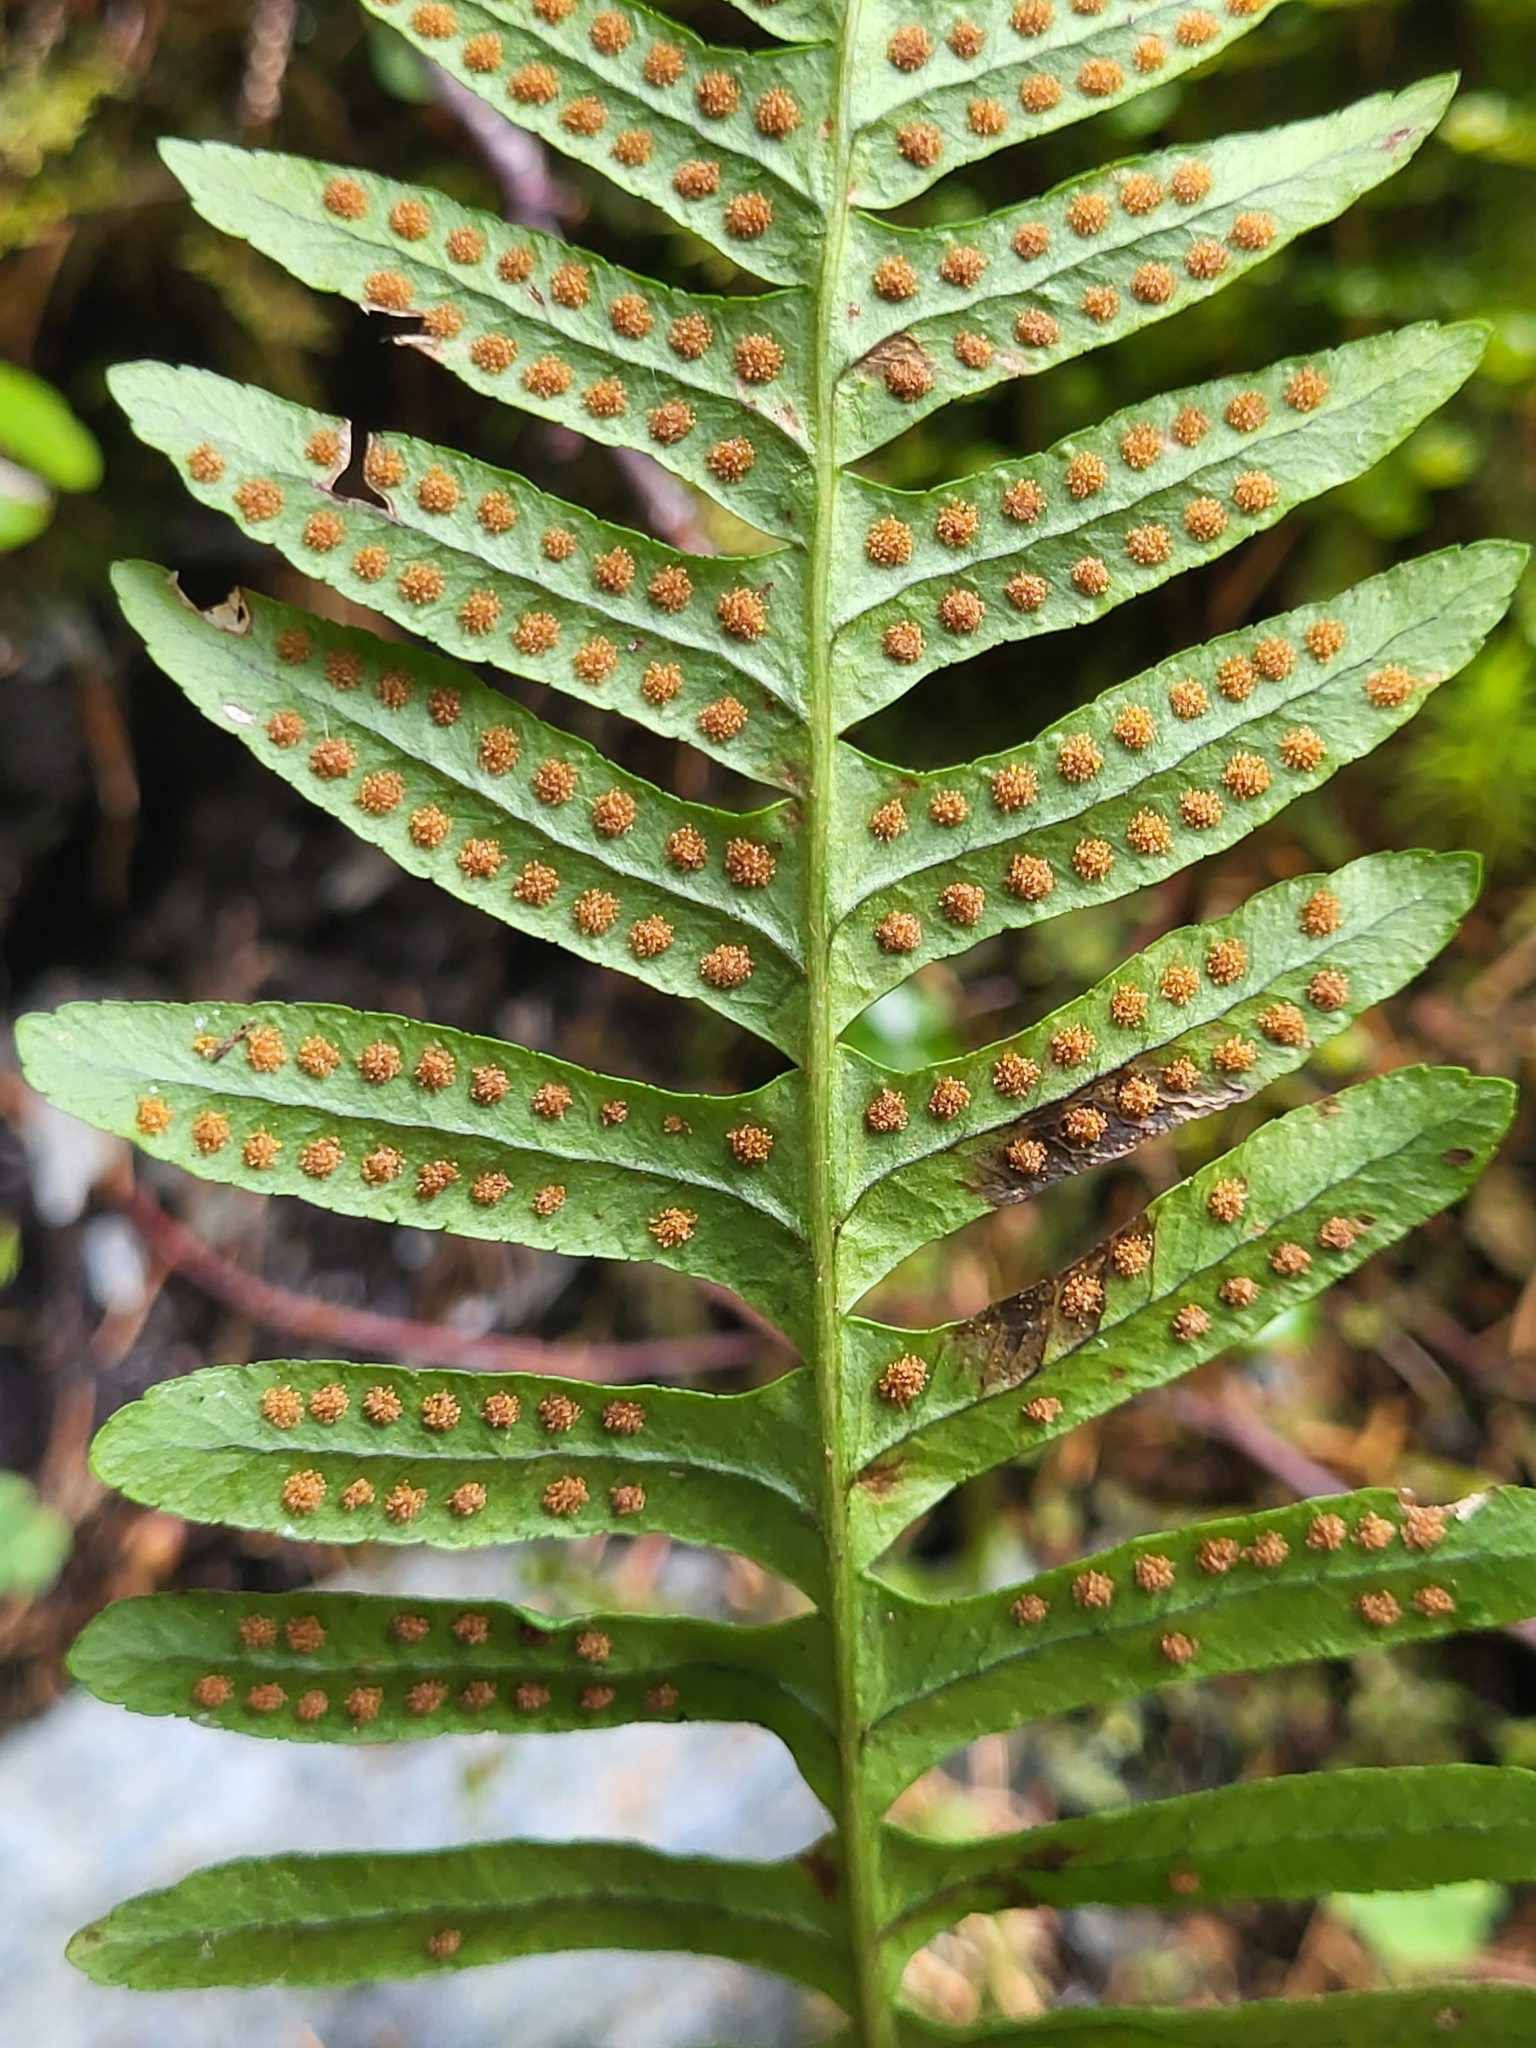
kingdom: Plantae
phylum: Tracheophyta
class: Polypodiopsida
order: Polypodiales
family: Polypodiaceae
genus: Polypodium
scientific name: Polypodium vulgare
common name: Common polypody
